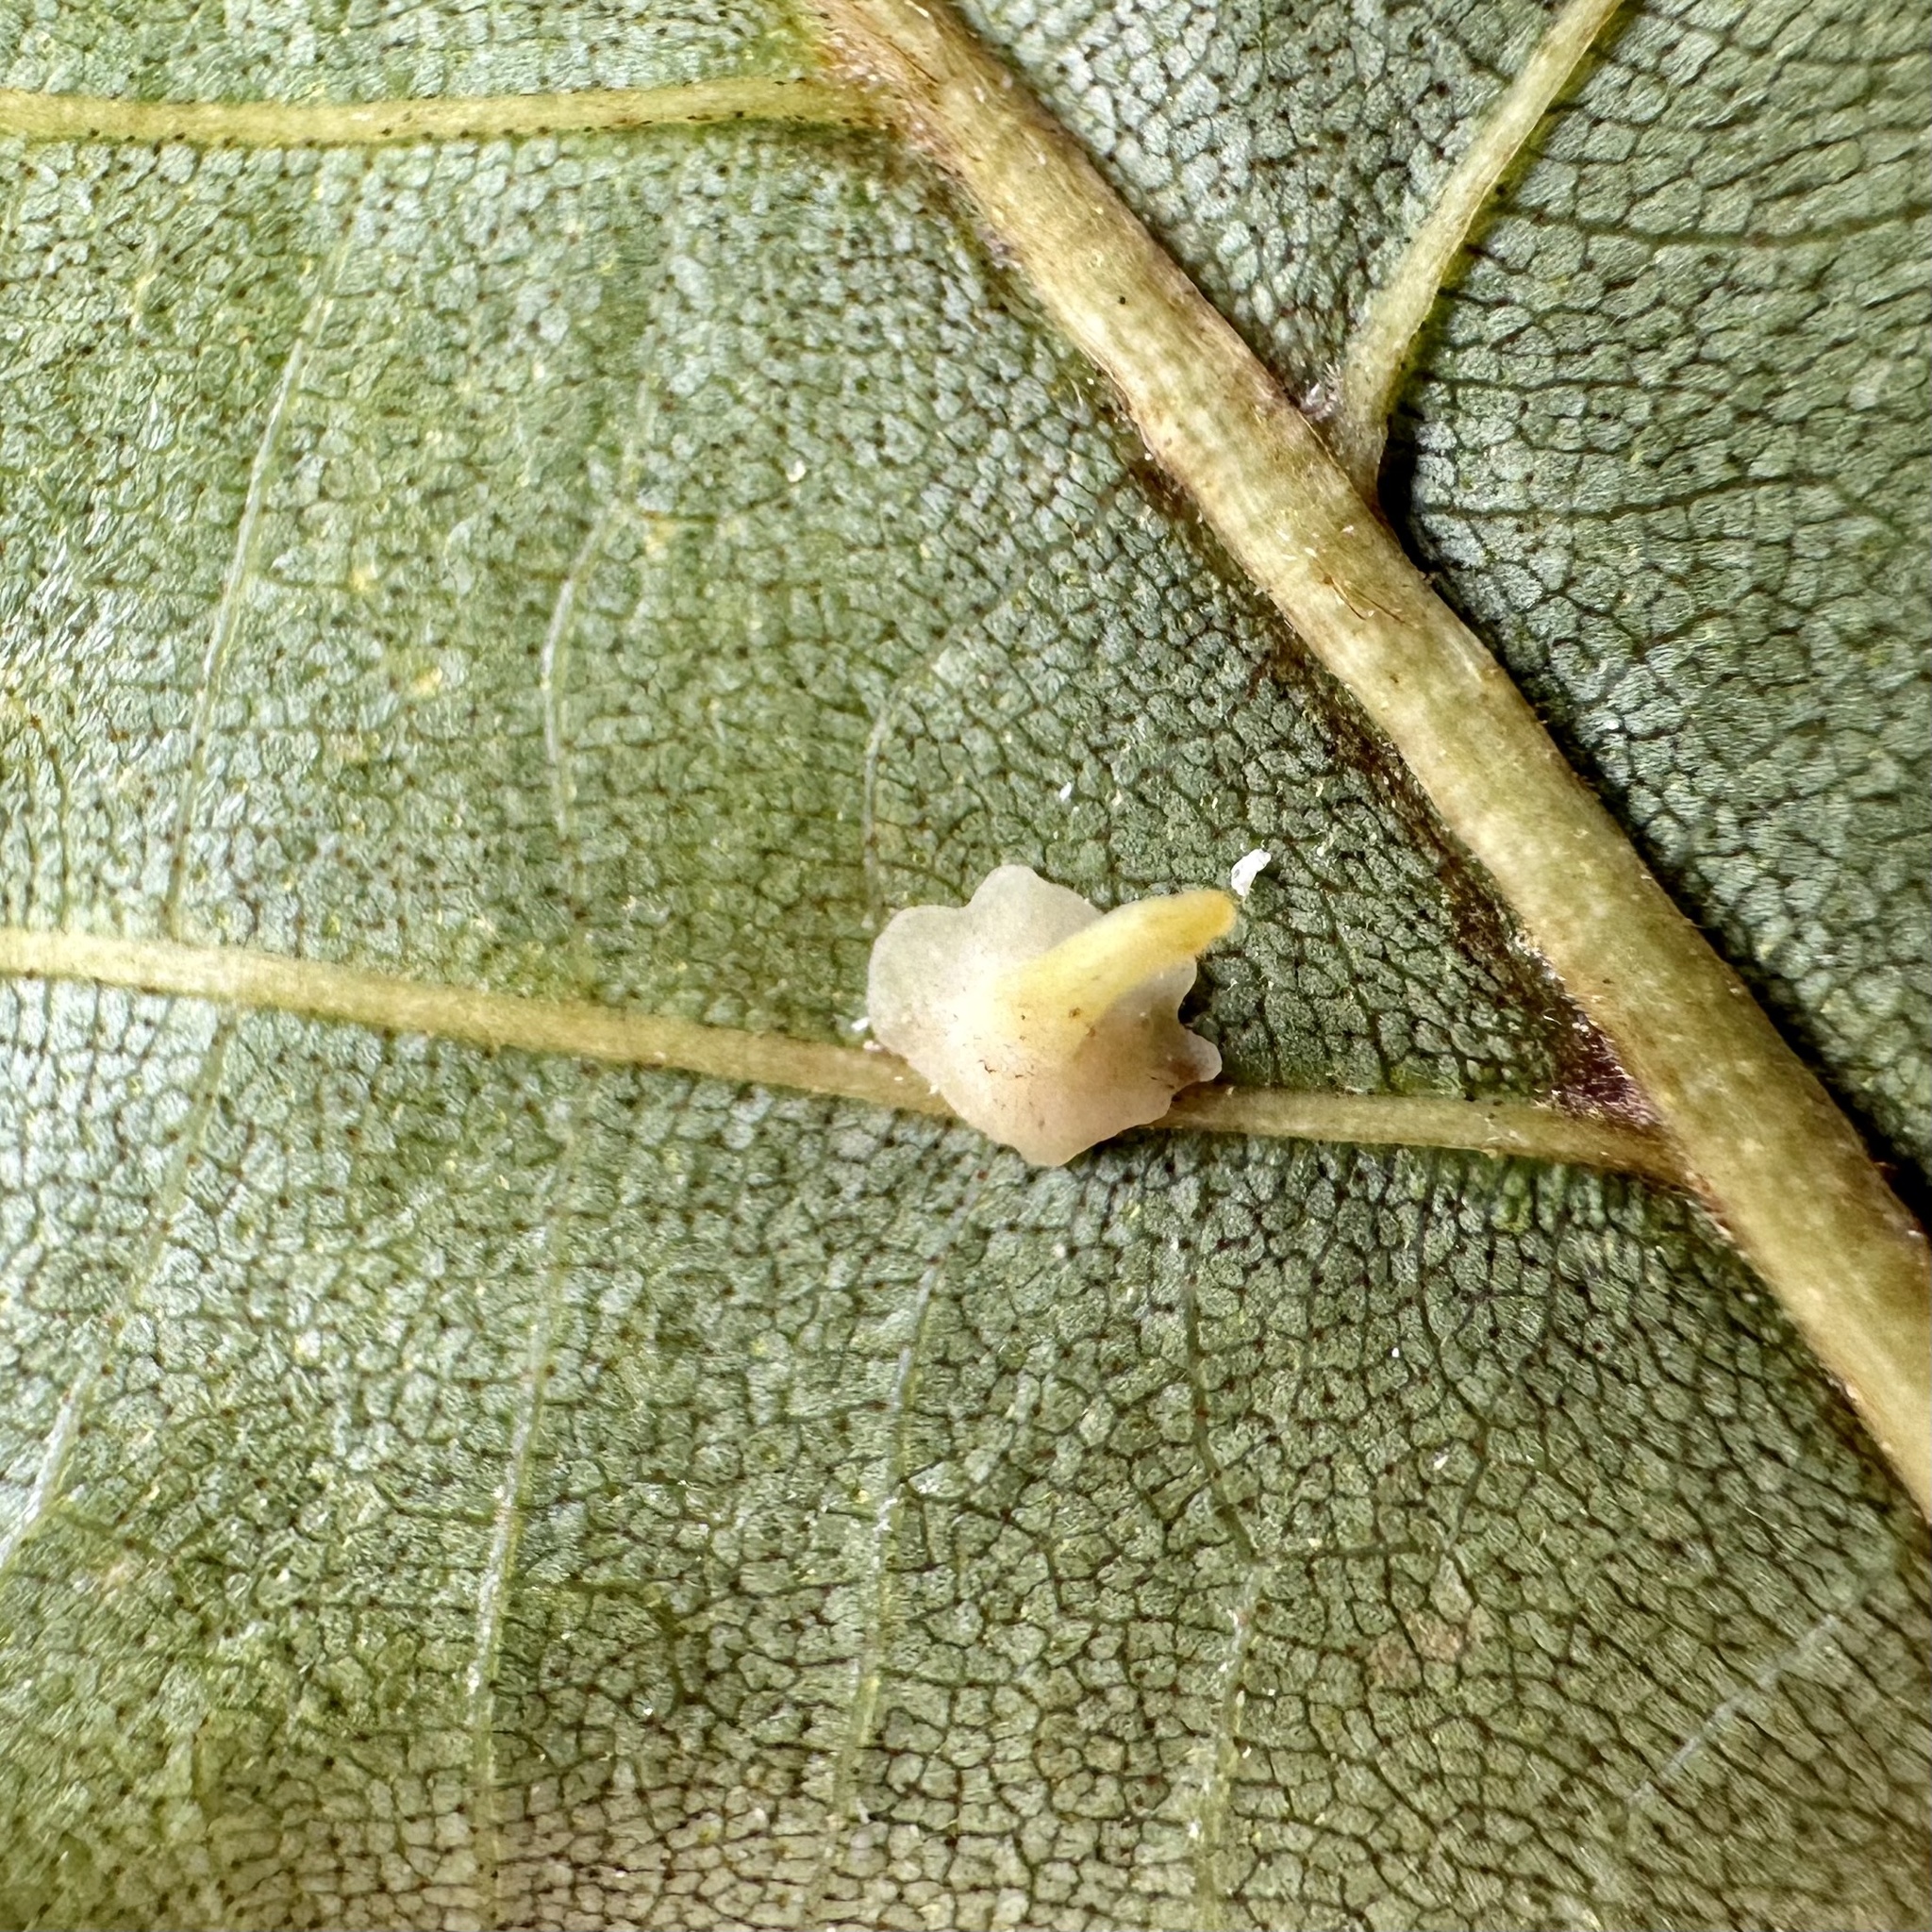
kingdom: Animalia
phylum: Arthropoda
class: Insecta
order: Diptera
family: Cecidomyiidae
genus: Caryomyia
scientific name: Caryomyia stellata
